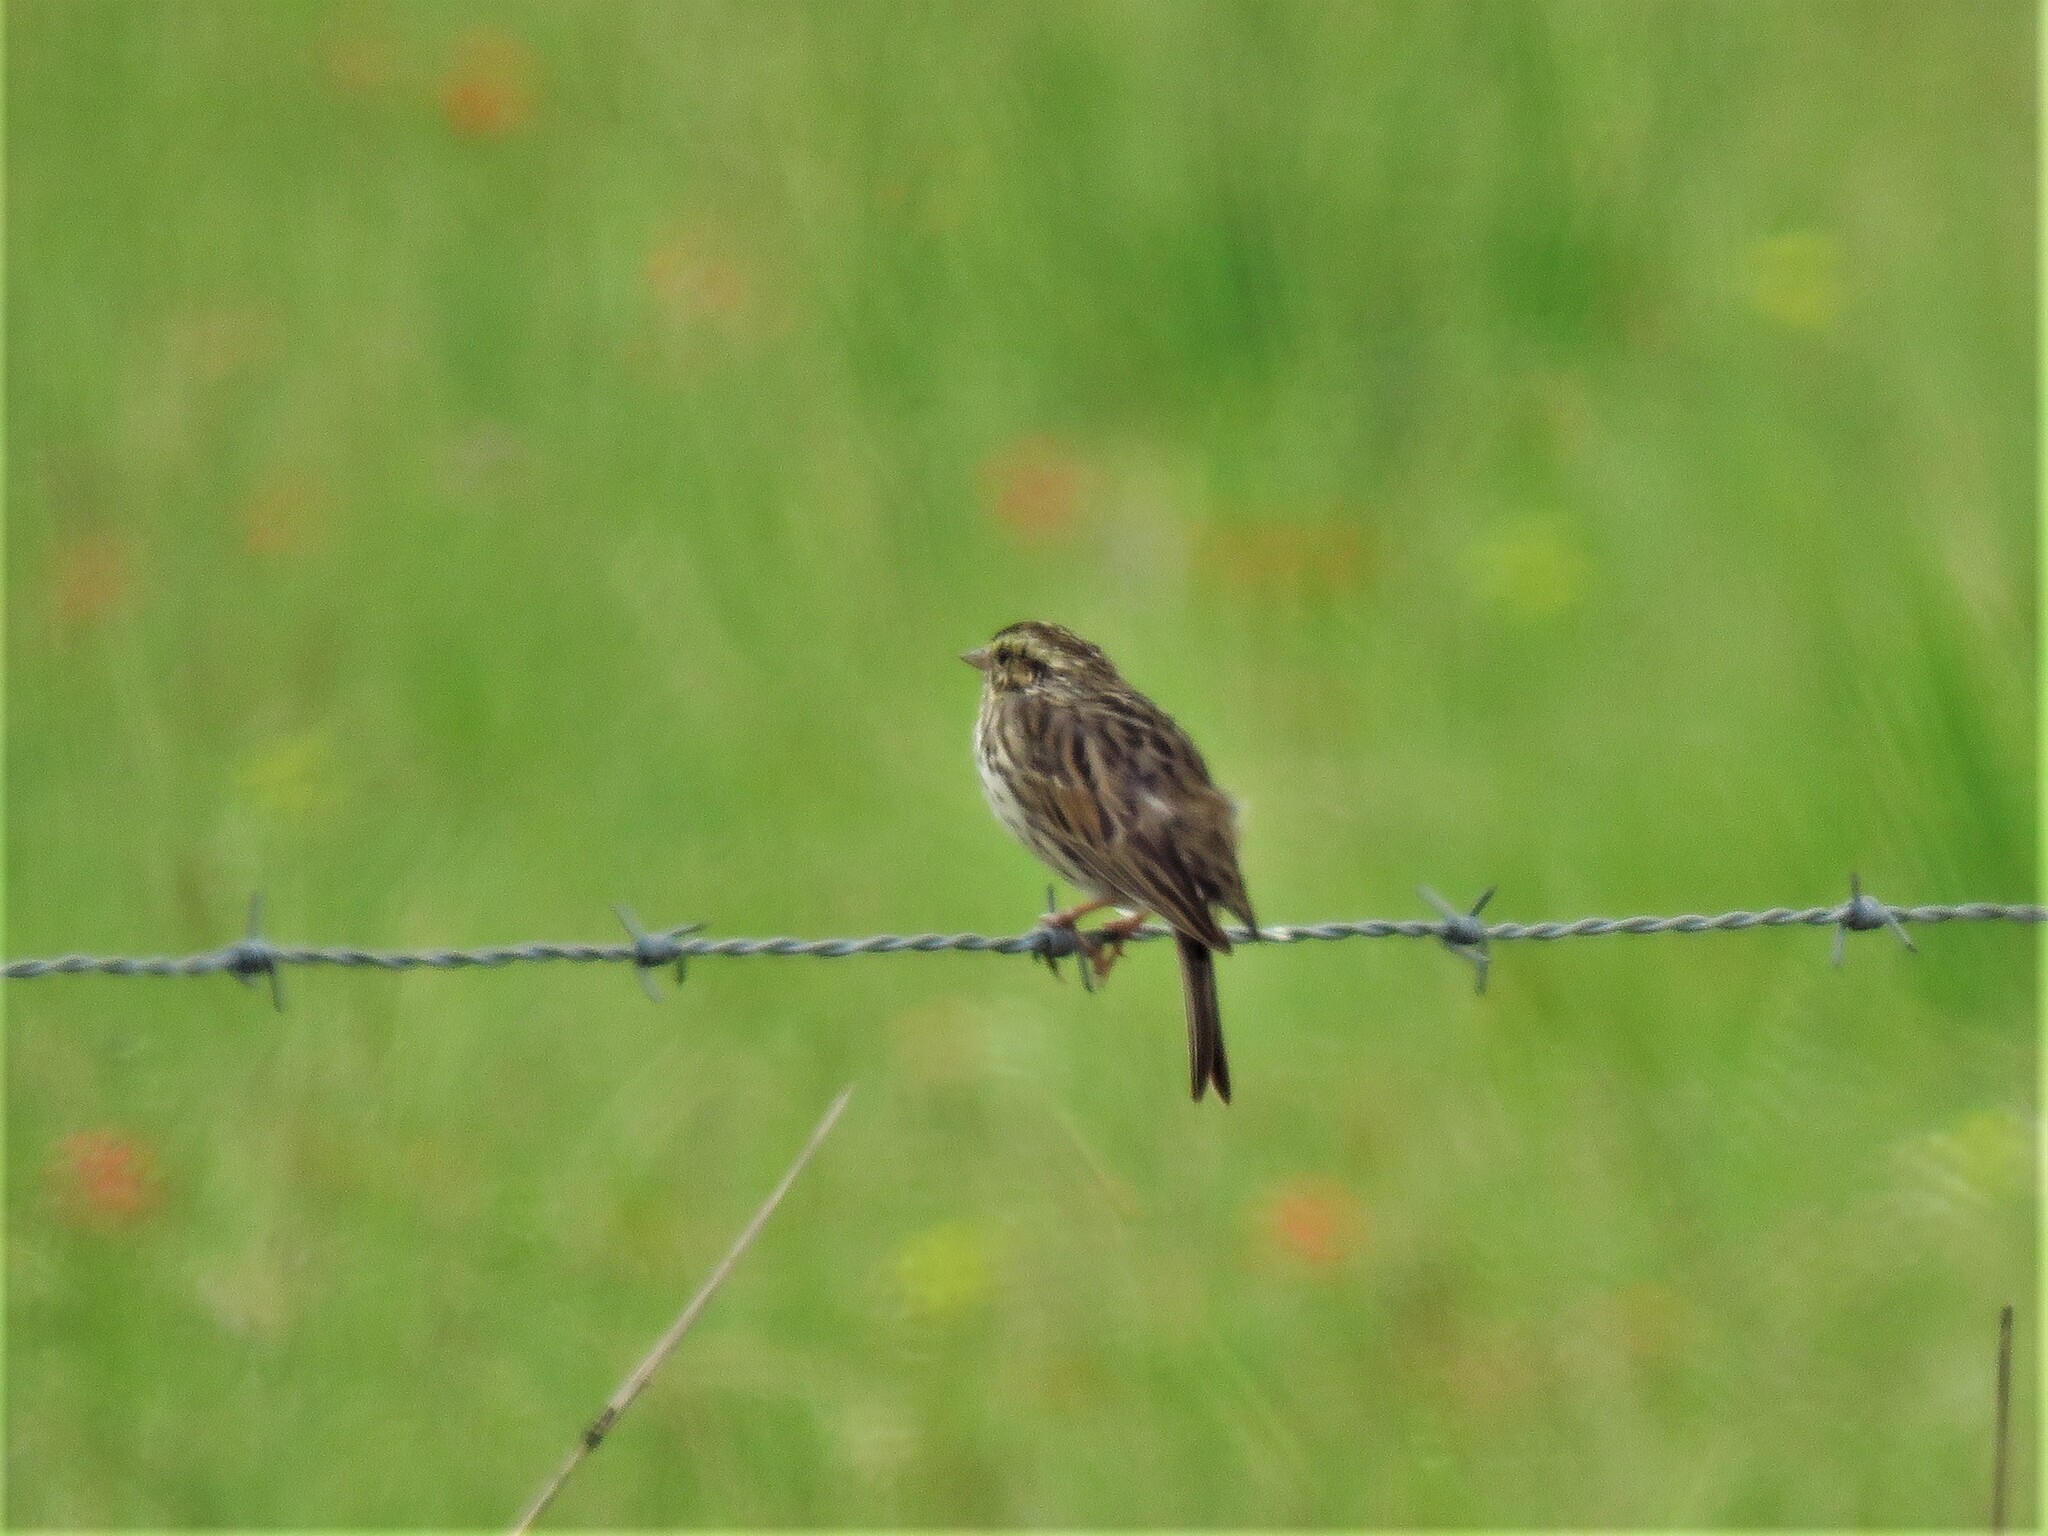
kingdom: Animalia
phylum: Chordata
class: Aves
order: Passeriformes
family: Passerellidae
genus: Passerculus
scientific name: Passerculus sandwichensis
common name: Savannah sparrow
